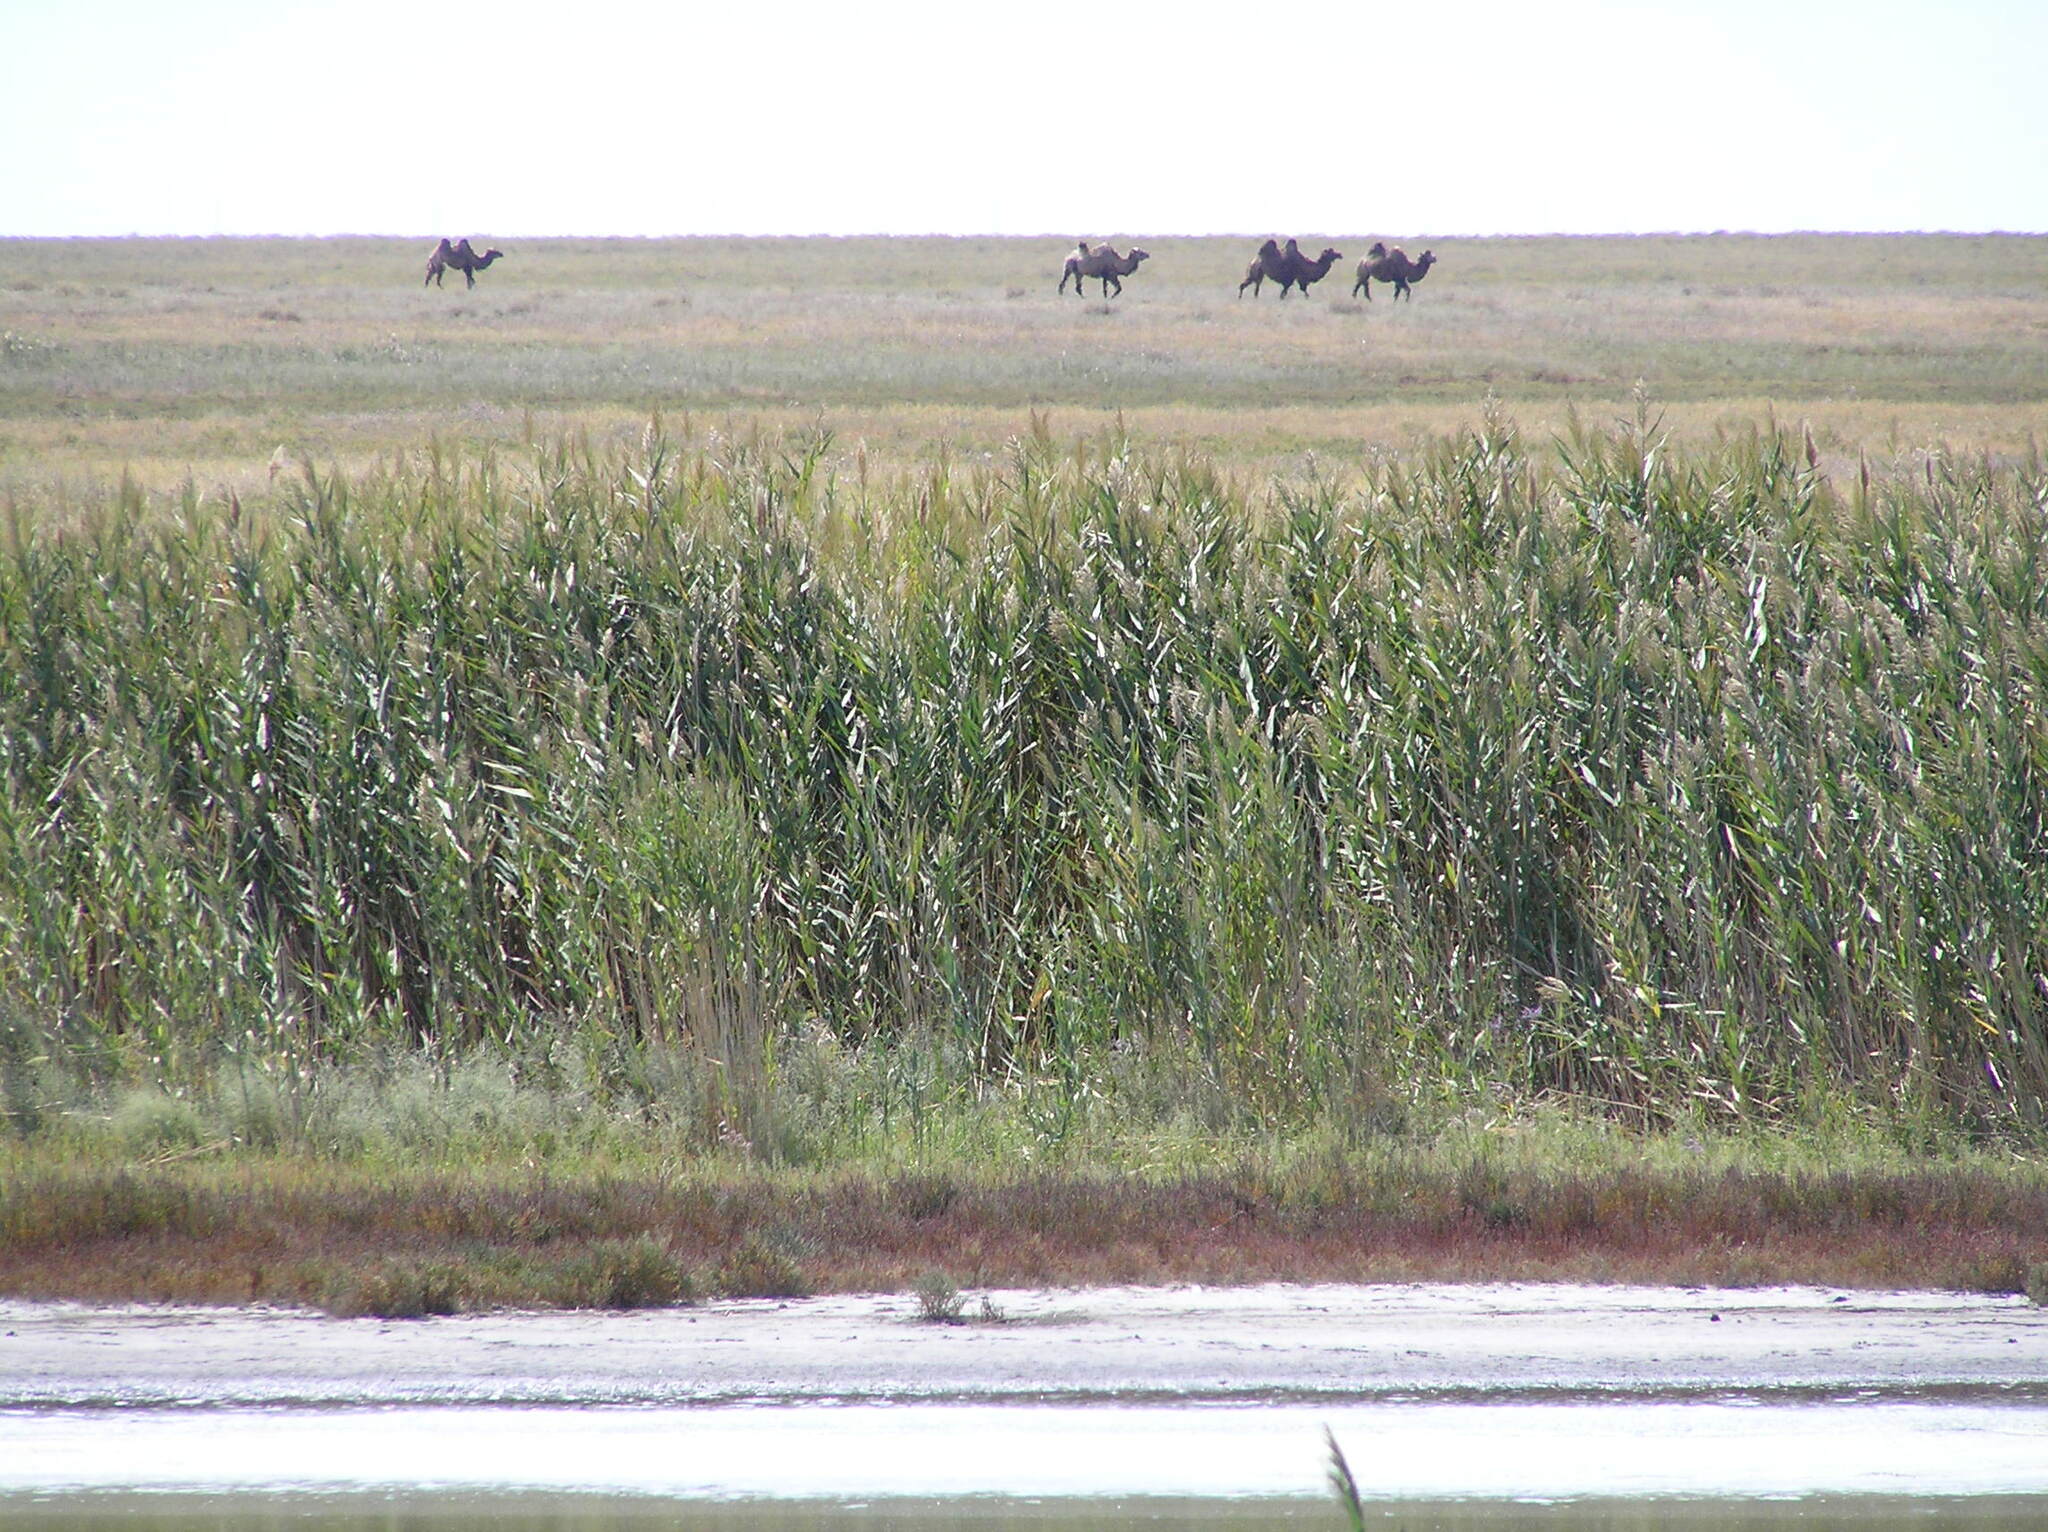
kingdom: Plantae
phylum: Tracheophyta
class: Liliopsida
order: Poales
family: Poaceae
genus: Phragmites
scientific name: Phragmites australis
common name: Common reed
